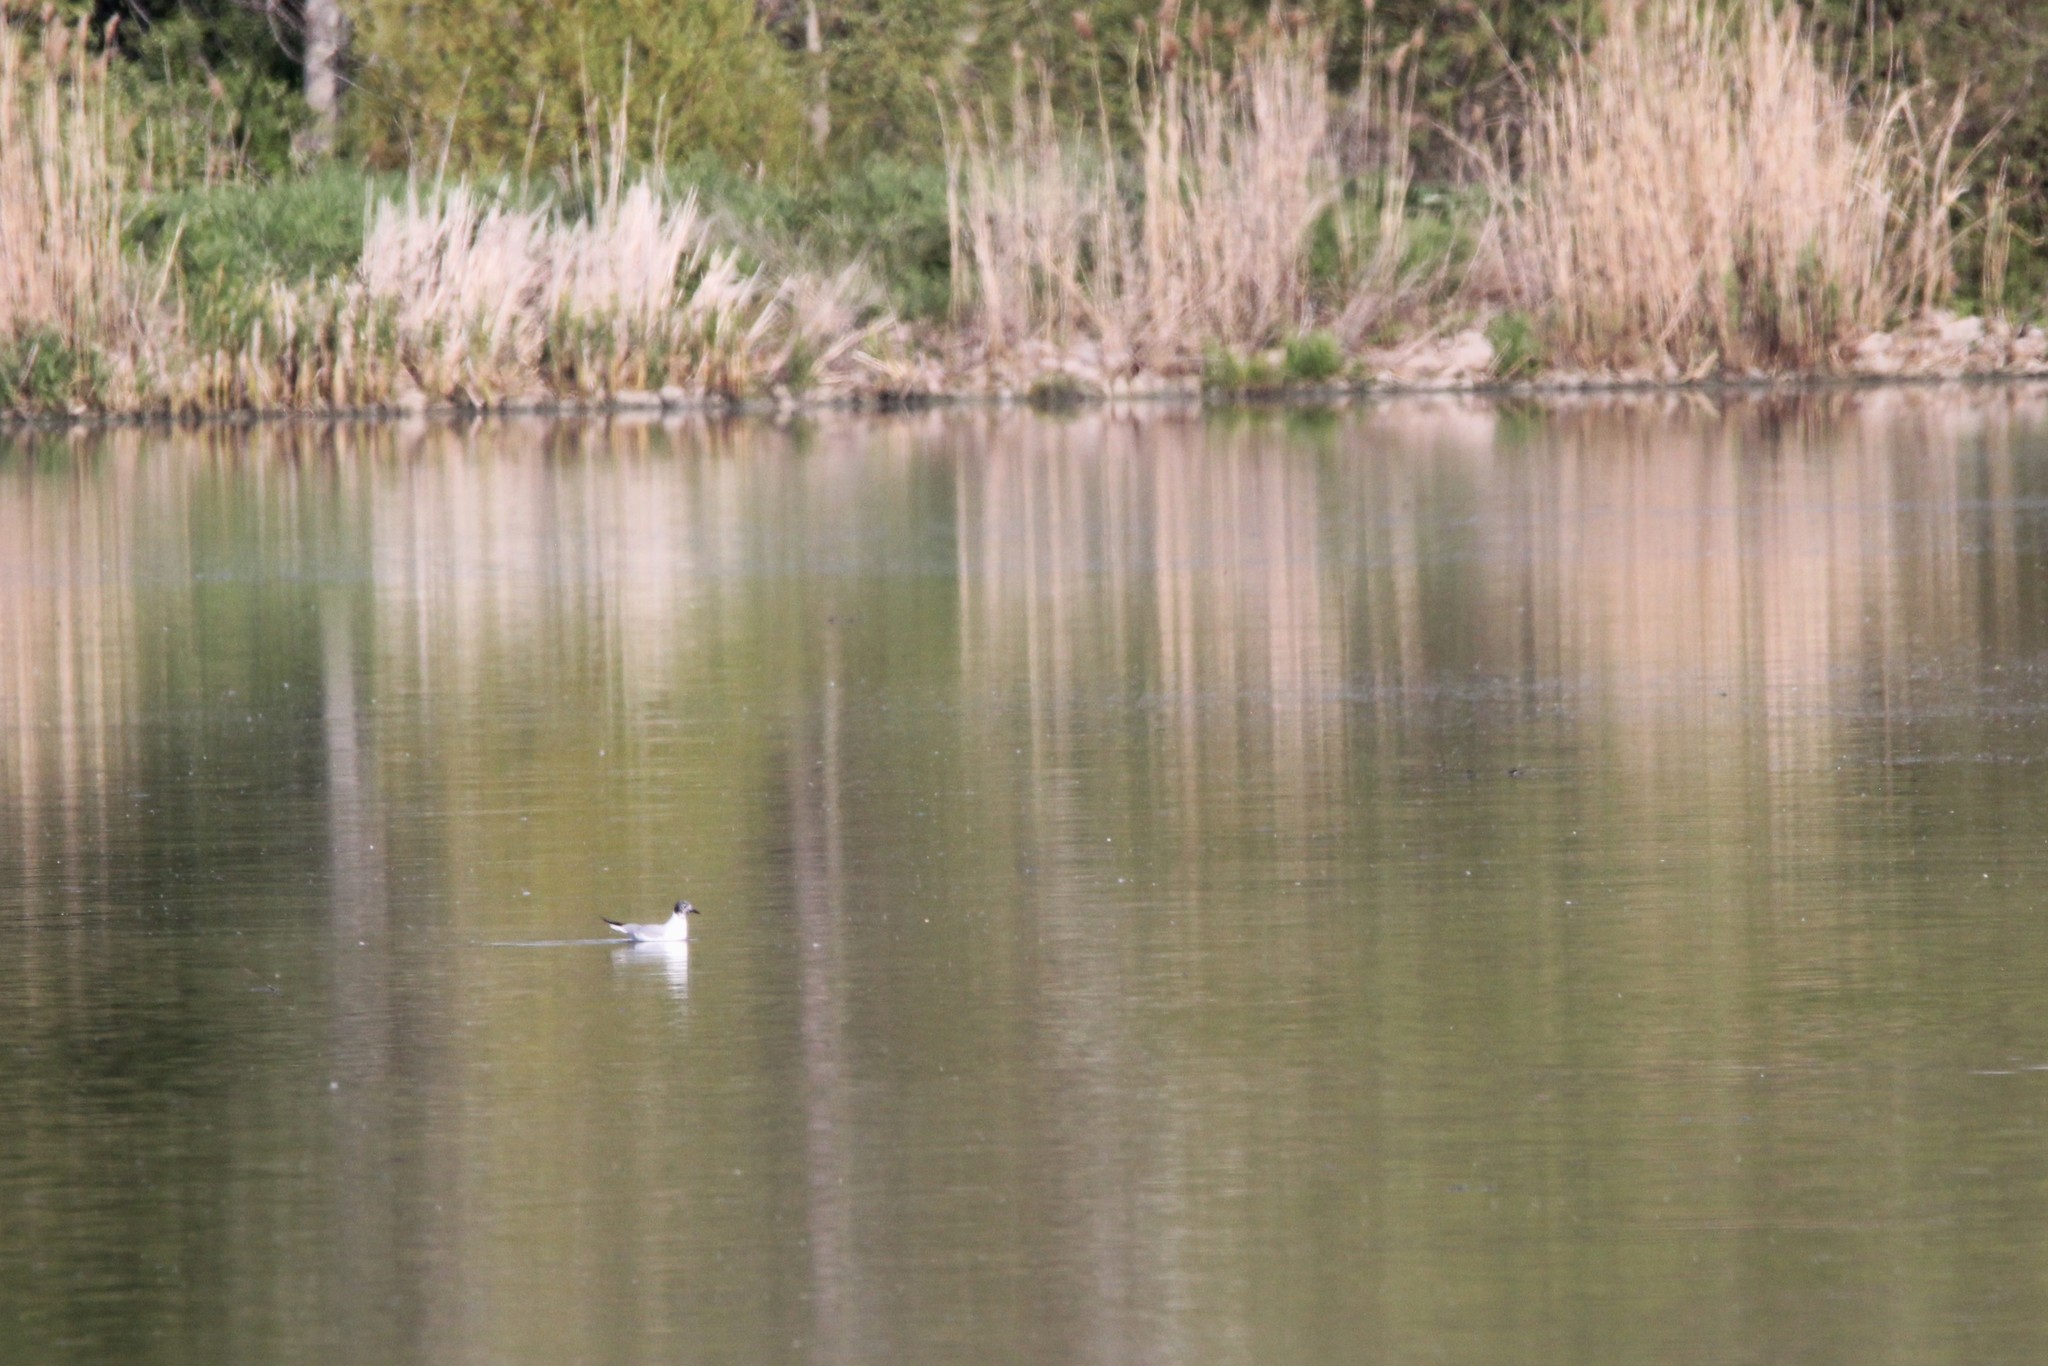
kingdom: Animalia
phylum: Chordata
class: Aves
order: Charadriiformes
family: Laridae
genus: Chroicocephalus
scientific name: Chroicocephalus philadelphia
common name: Bonaparte's gull
